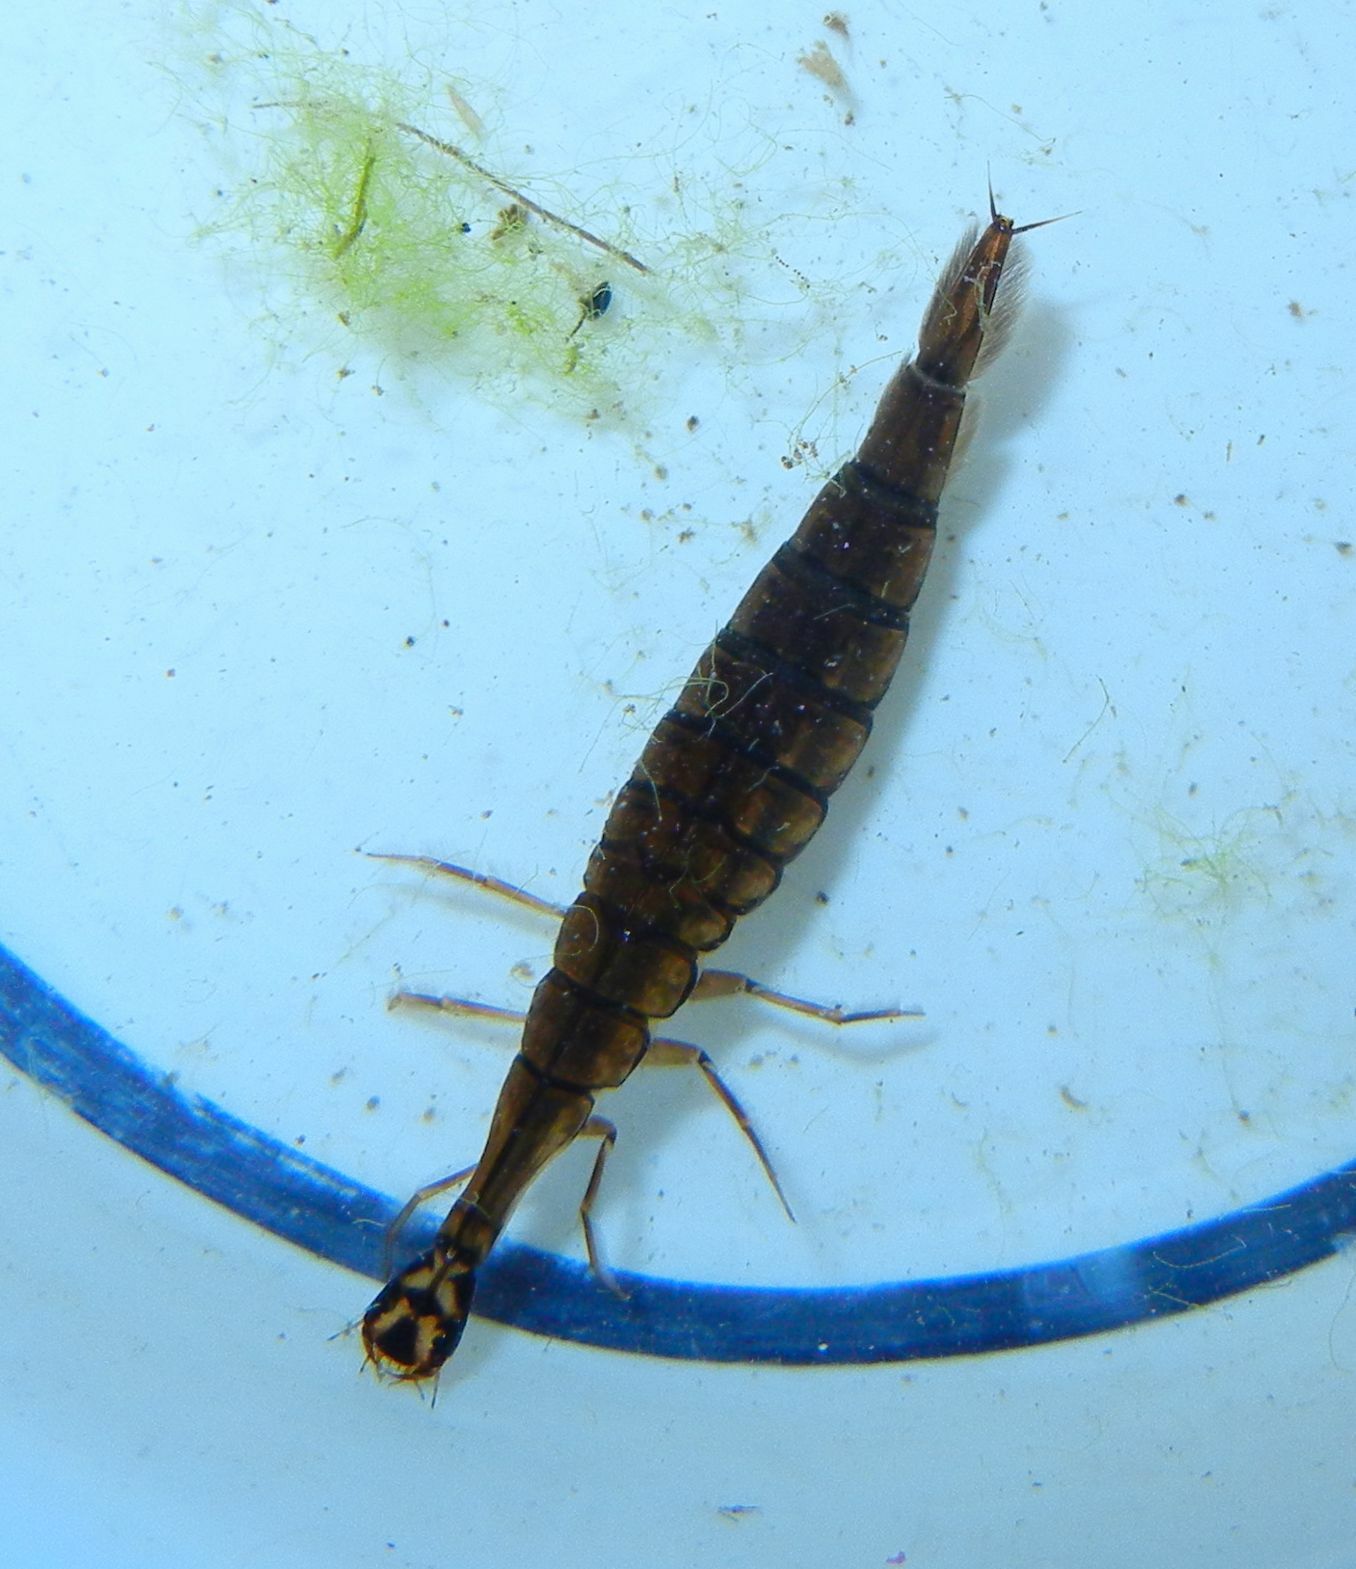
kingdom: Animalia
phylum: Arthropoda
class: Insecta
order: Coleoptera
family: Dytiscidae
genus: Acilius
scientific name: Acilius sulcatus
